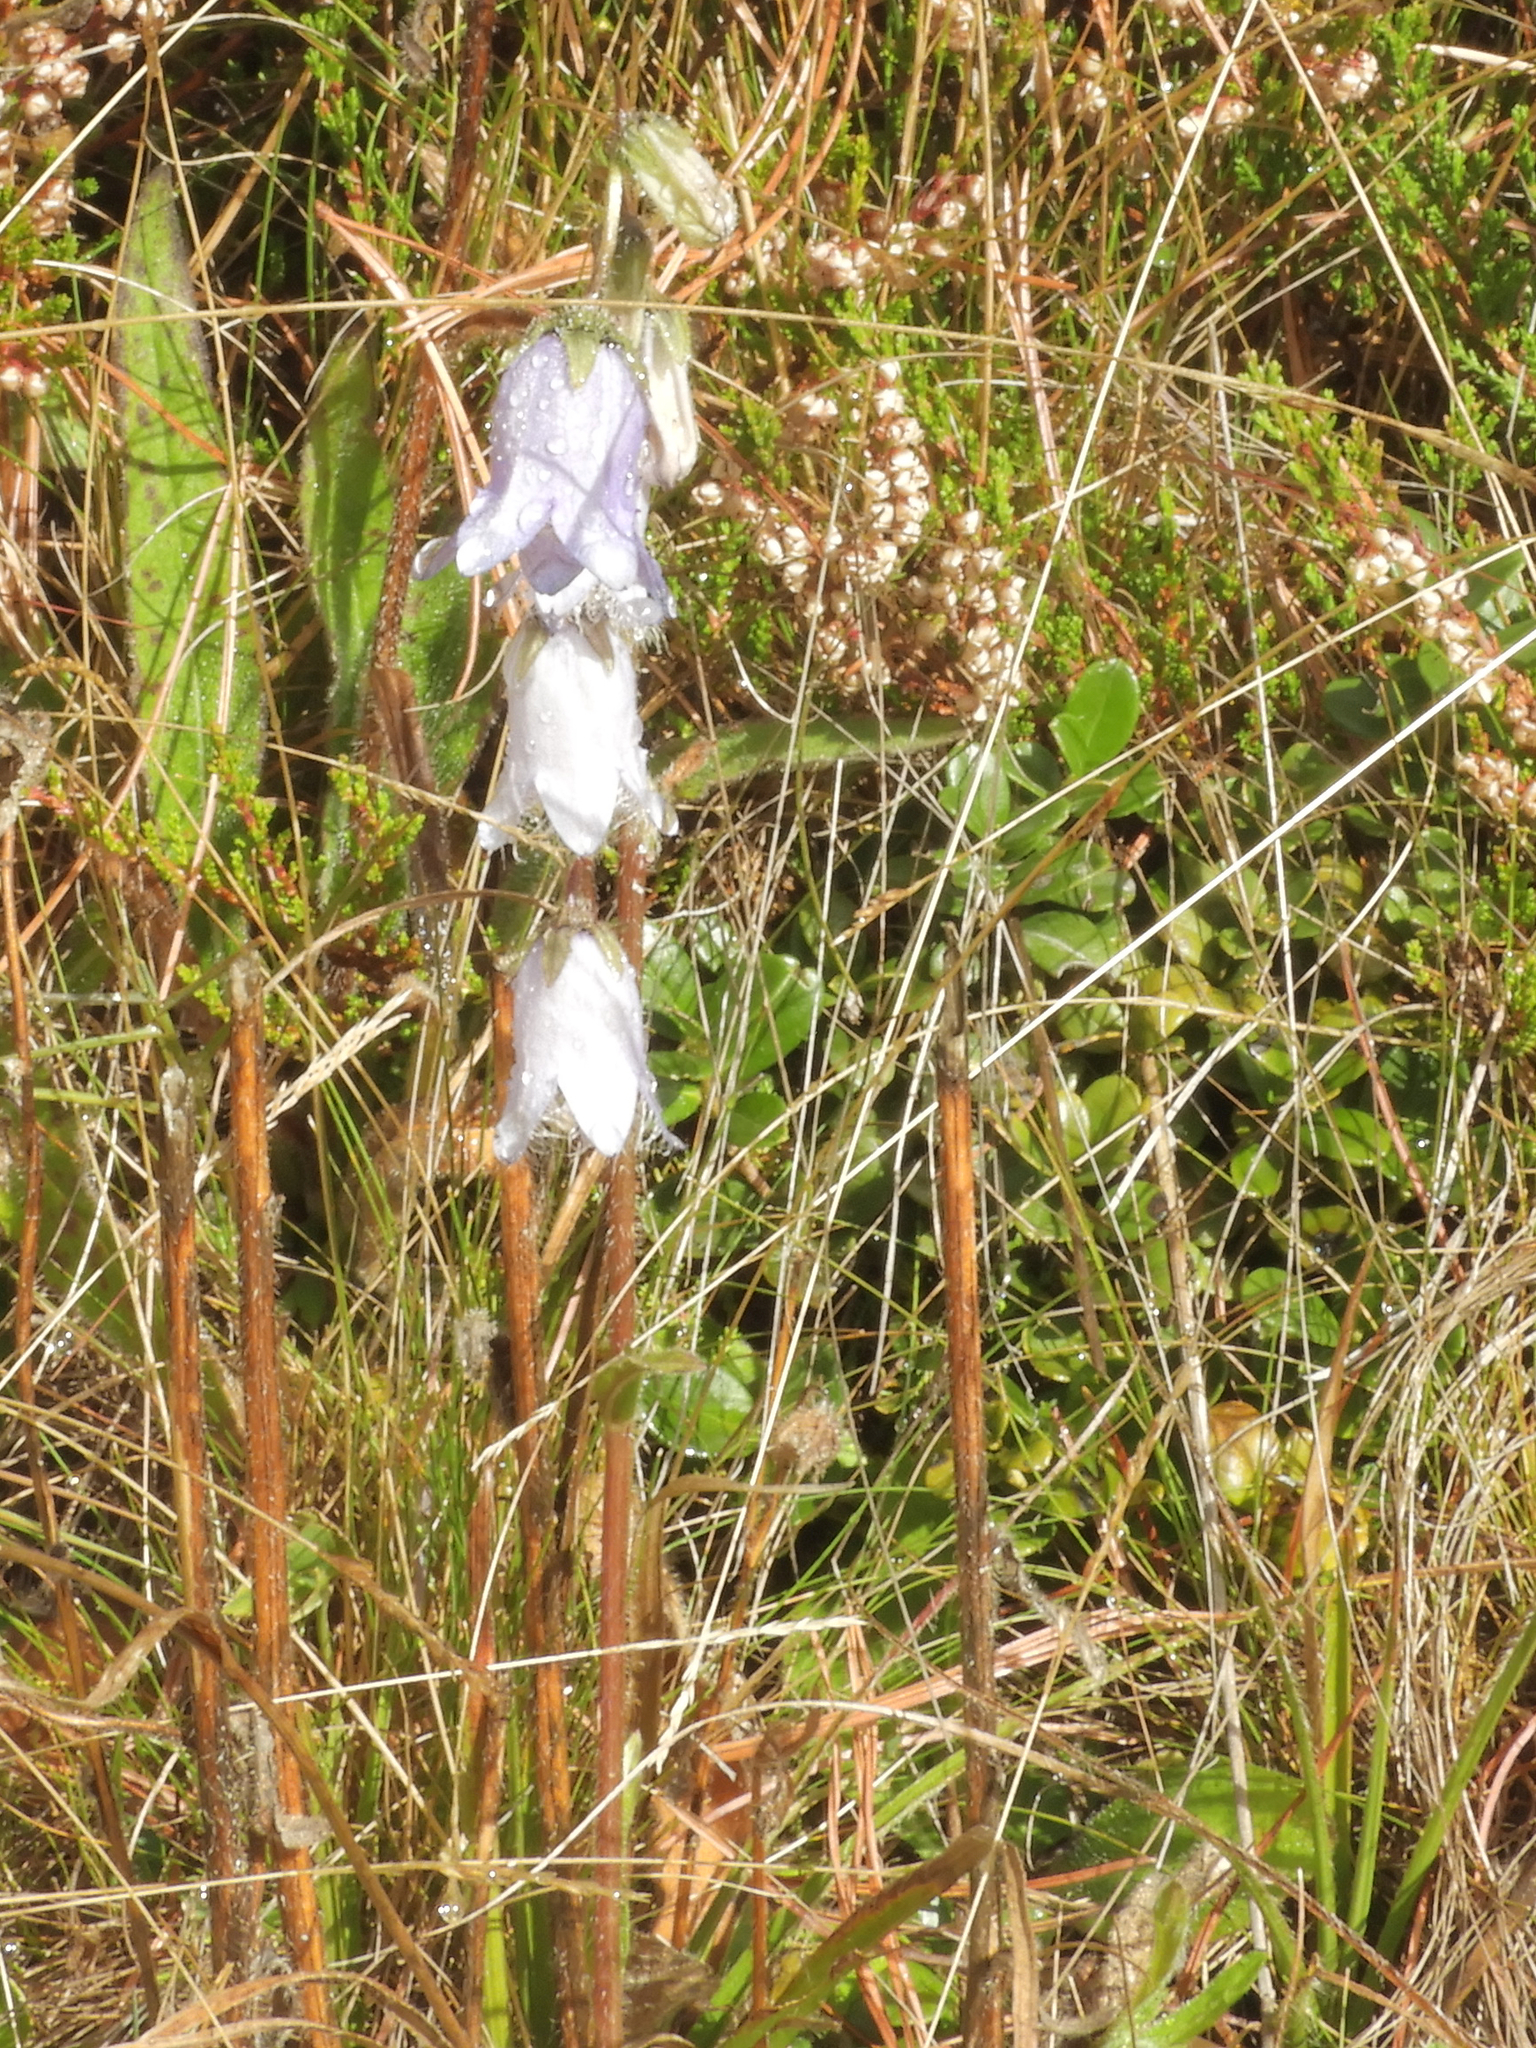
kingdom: Plantae
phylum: Tracheophyta
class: Magnoliopsida
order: Asterales
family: Campanulaceae
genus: Campanula
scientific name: Campanula barbata
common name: Bearded bellflower
